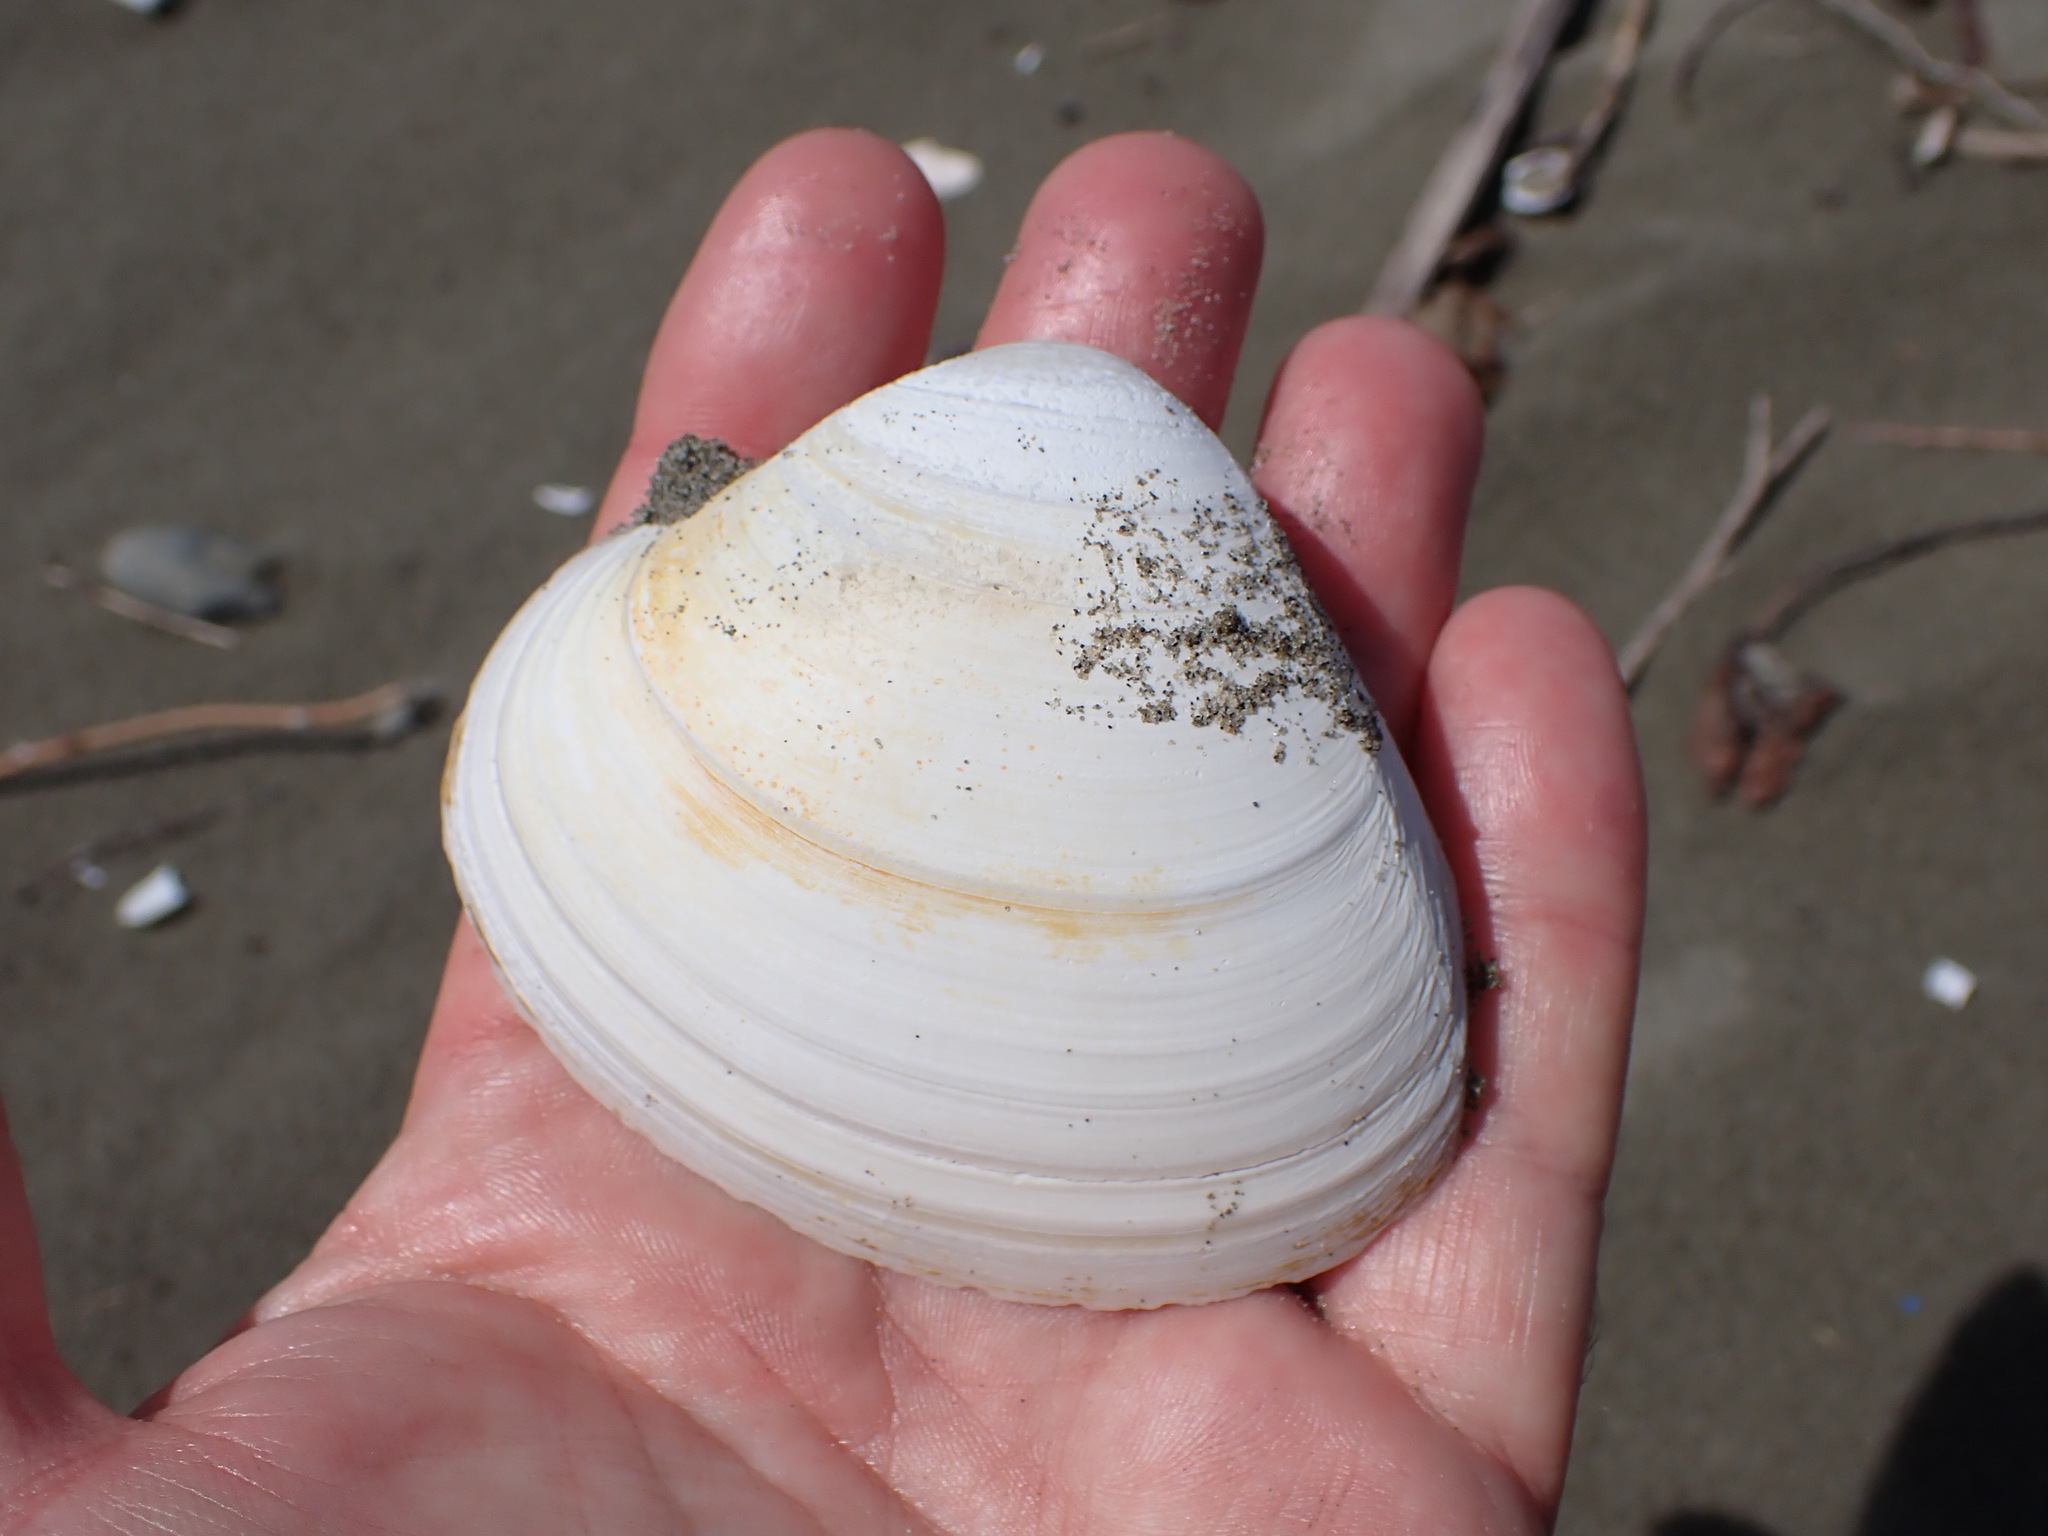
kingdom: Animalia
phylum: Mollusca
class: Bivalvia
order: Venerida
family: Mactridae
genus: Spisula
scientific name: Spisula murchisoni
